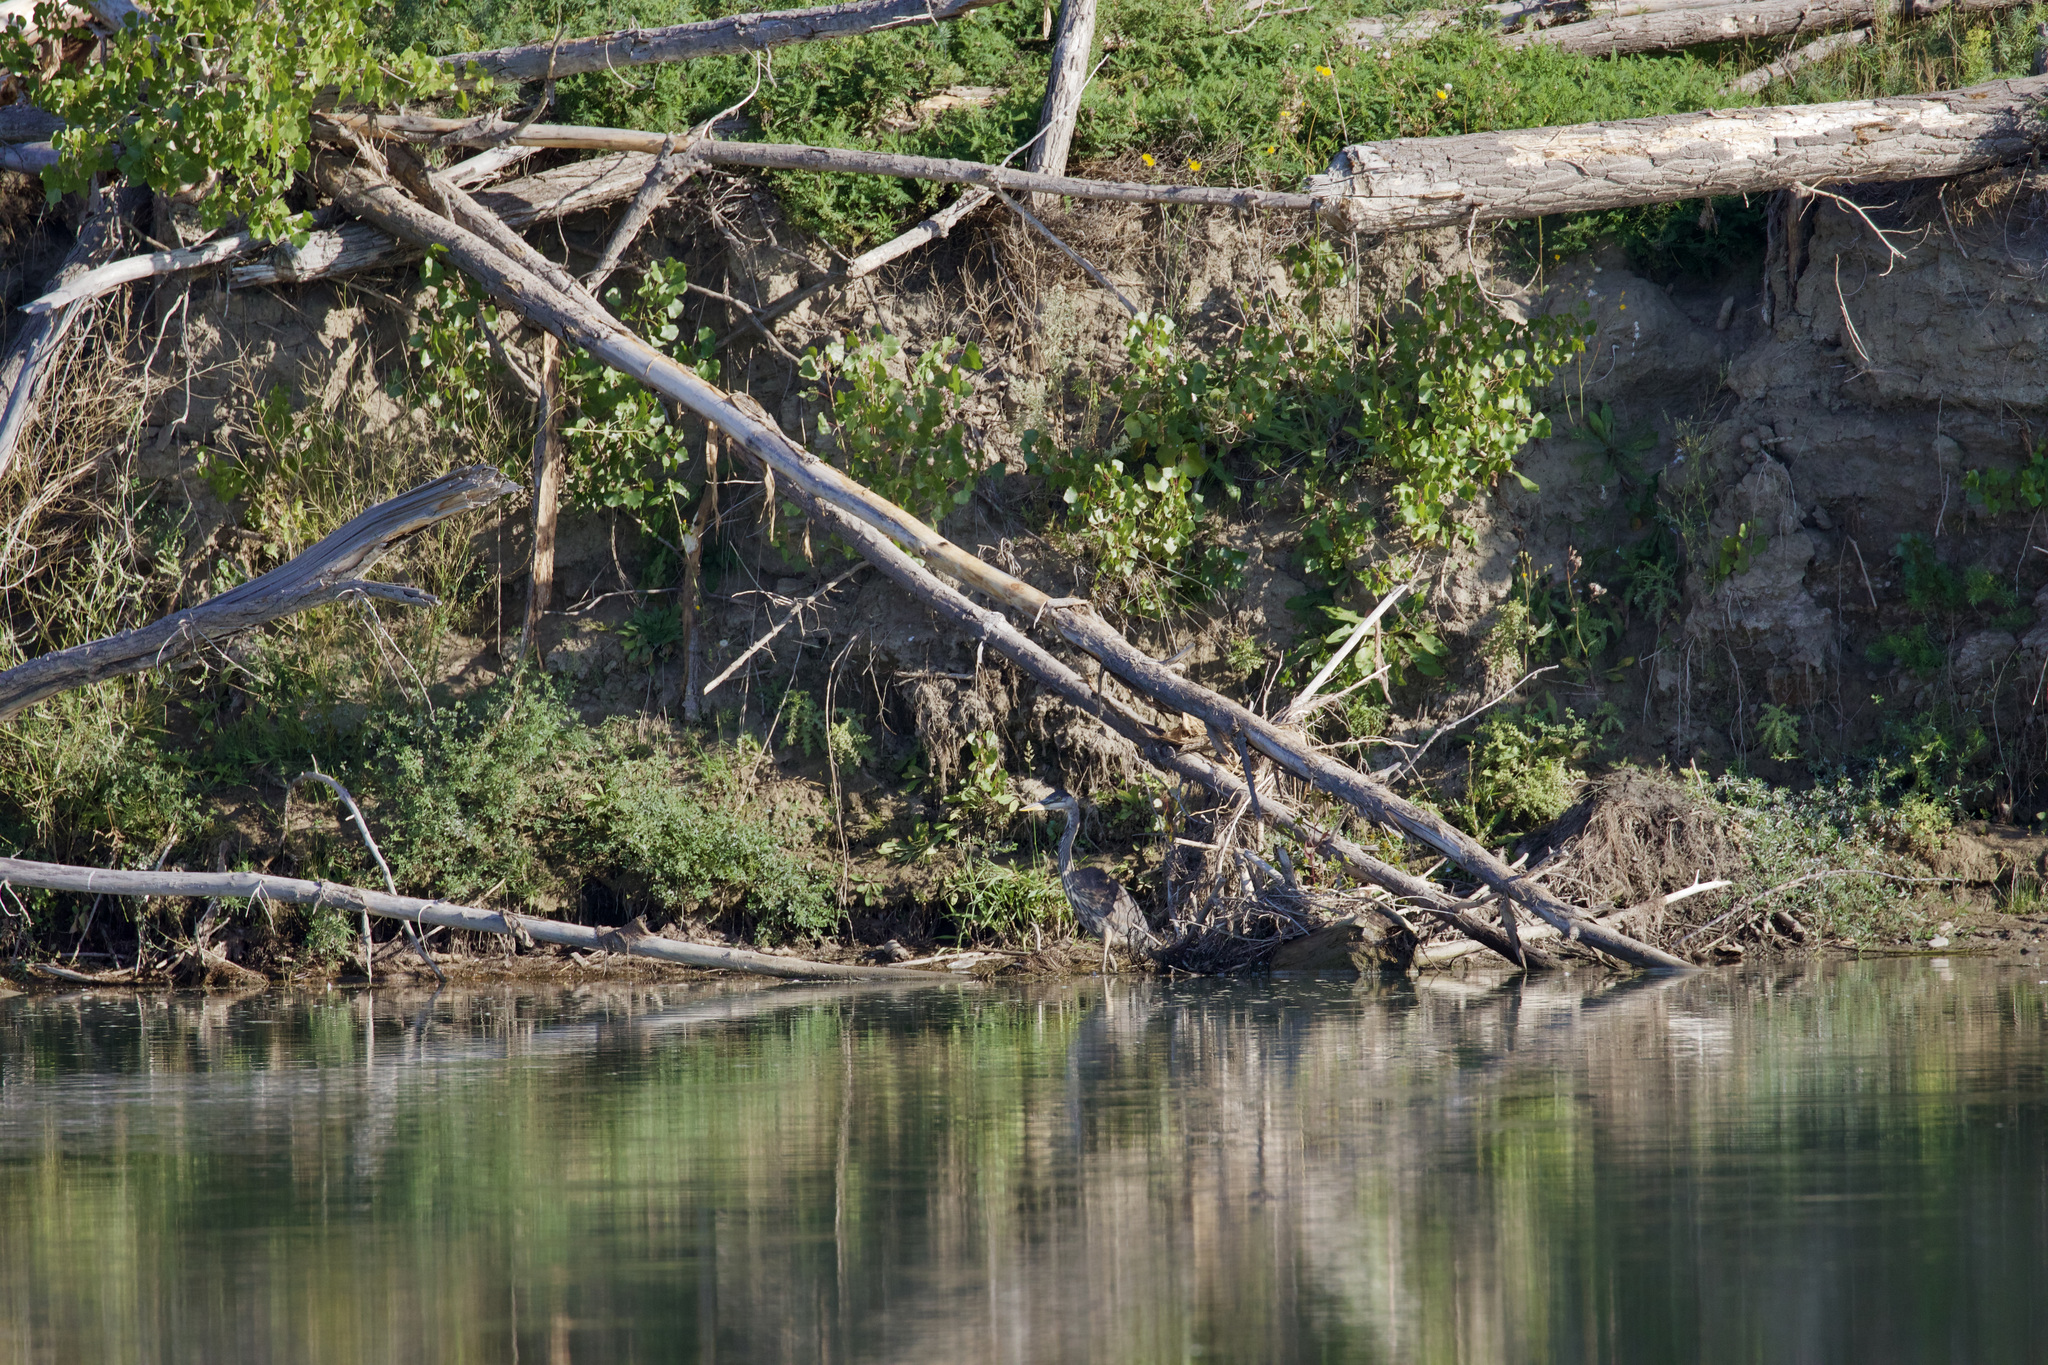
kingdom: Animalia
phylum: Chordata
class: Aves
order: Pelecaniformes
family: Ardeidae
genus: Ardea
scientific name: Ardea herodias
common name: Great blue heron
